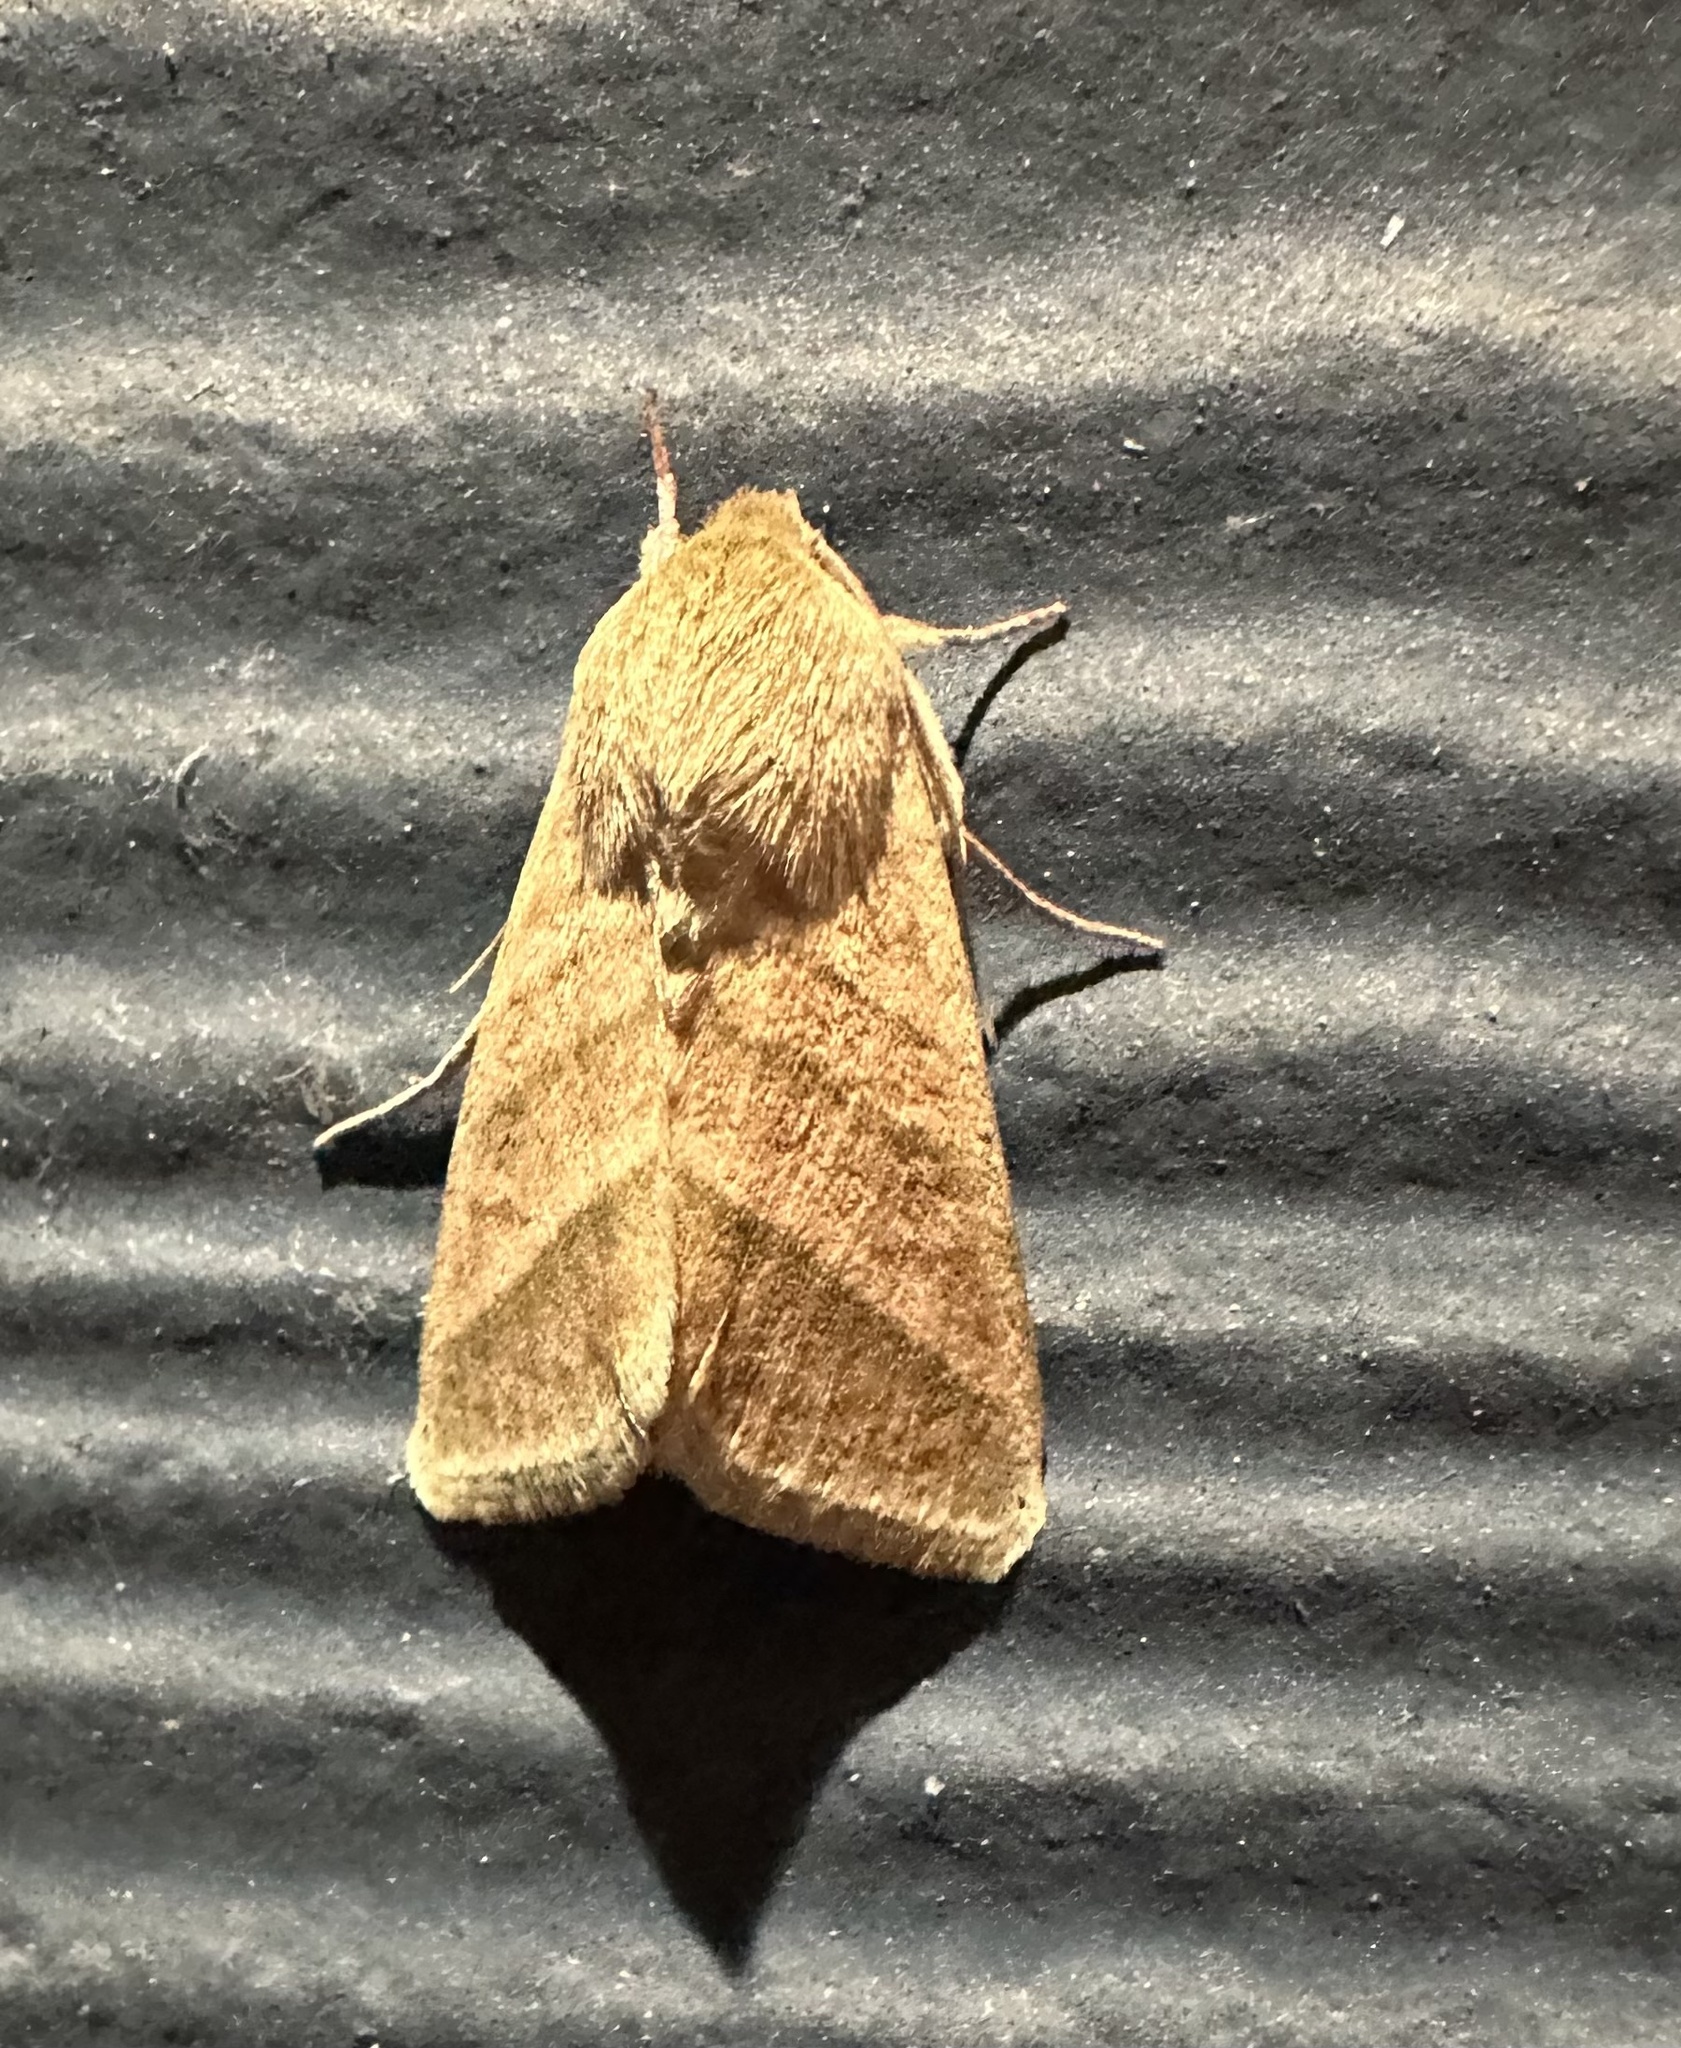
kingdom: Animalia
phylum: Arthropoda
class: Insecta
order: Lepidoptera
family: Noctuidae
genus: Chloridea
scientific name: Chloridea virescens
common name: Tobacco budworm
